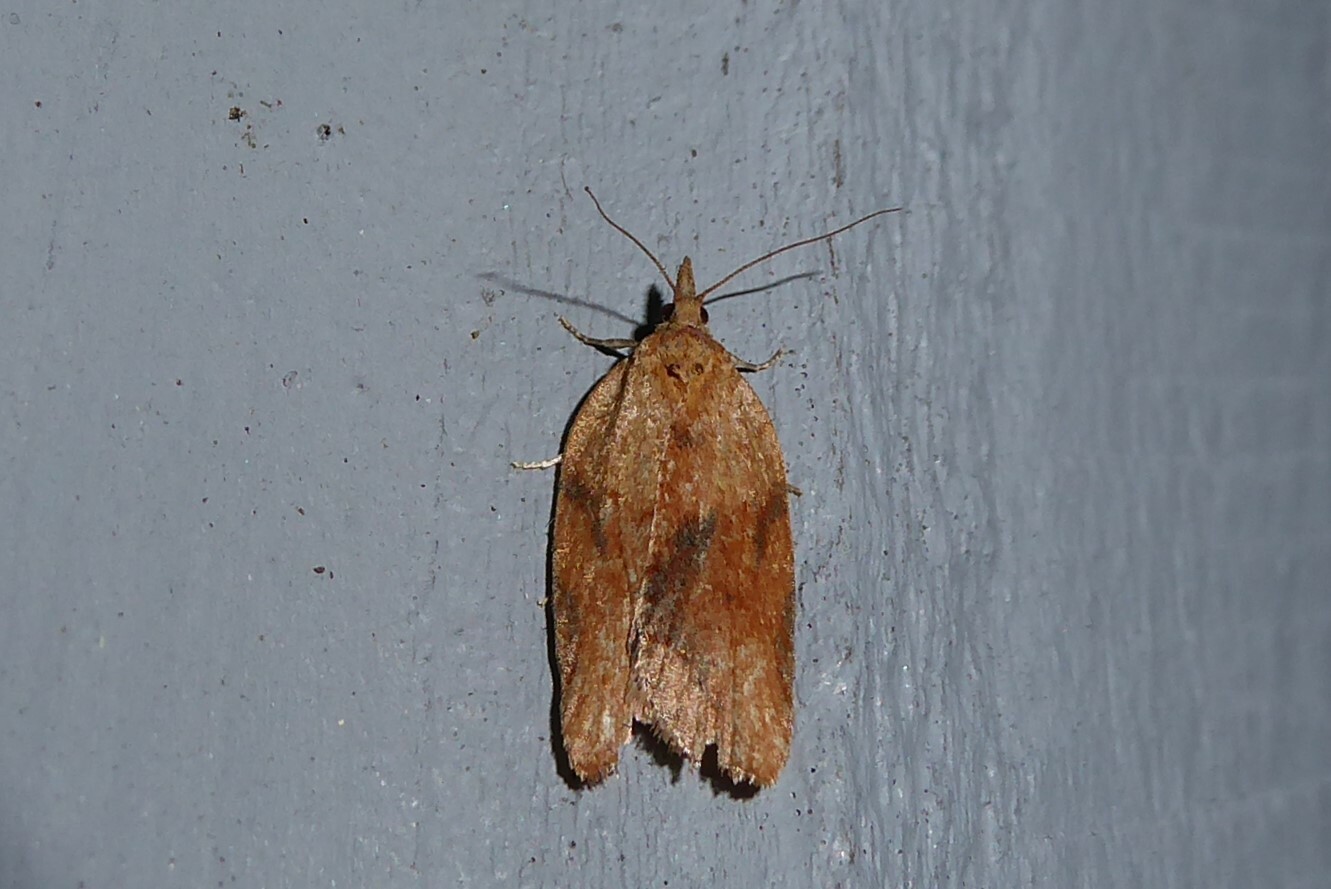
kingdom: Animalia
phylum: Arthropoda
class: Insecta
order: Lepidoptera
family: Tortricidae
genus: Epiphyas
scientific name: Epiphyas postvittana
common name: Light brown apple moth
